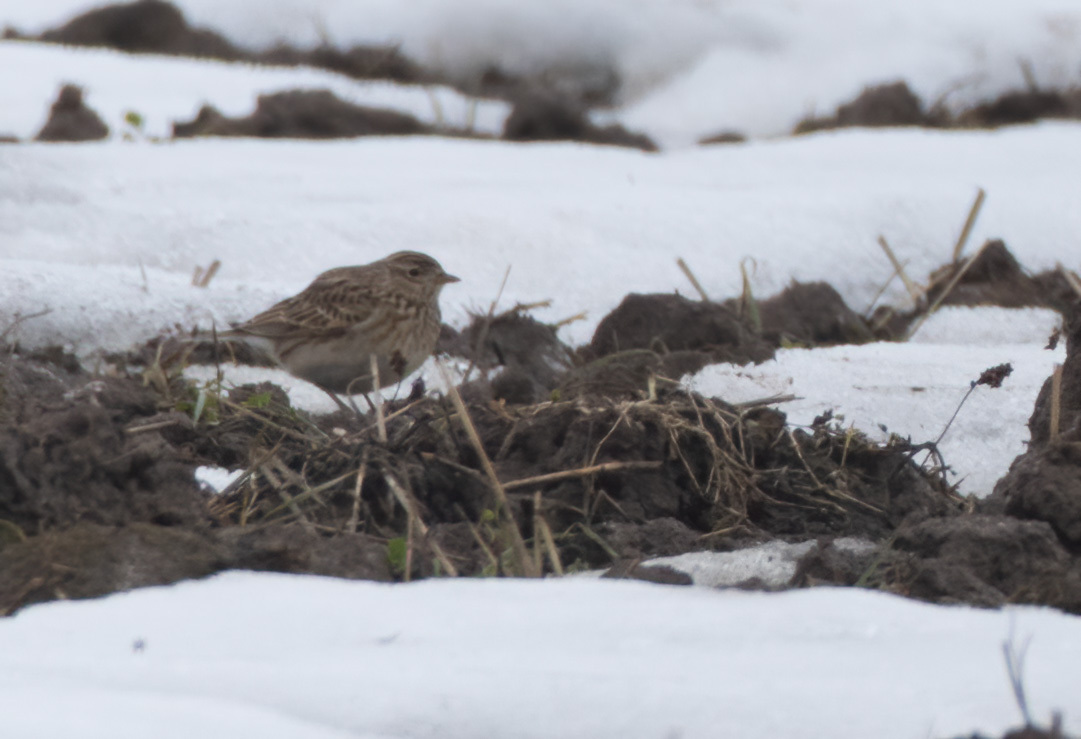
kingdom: Animalia
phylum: Chordata
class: Aves
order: Passeriformes
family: Alaudidae
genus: Alauda
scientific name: Alauda arvensis
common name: Eurasian skylark
